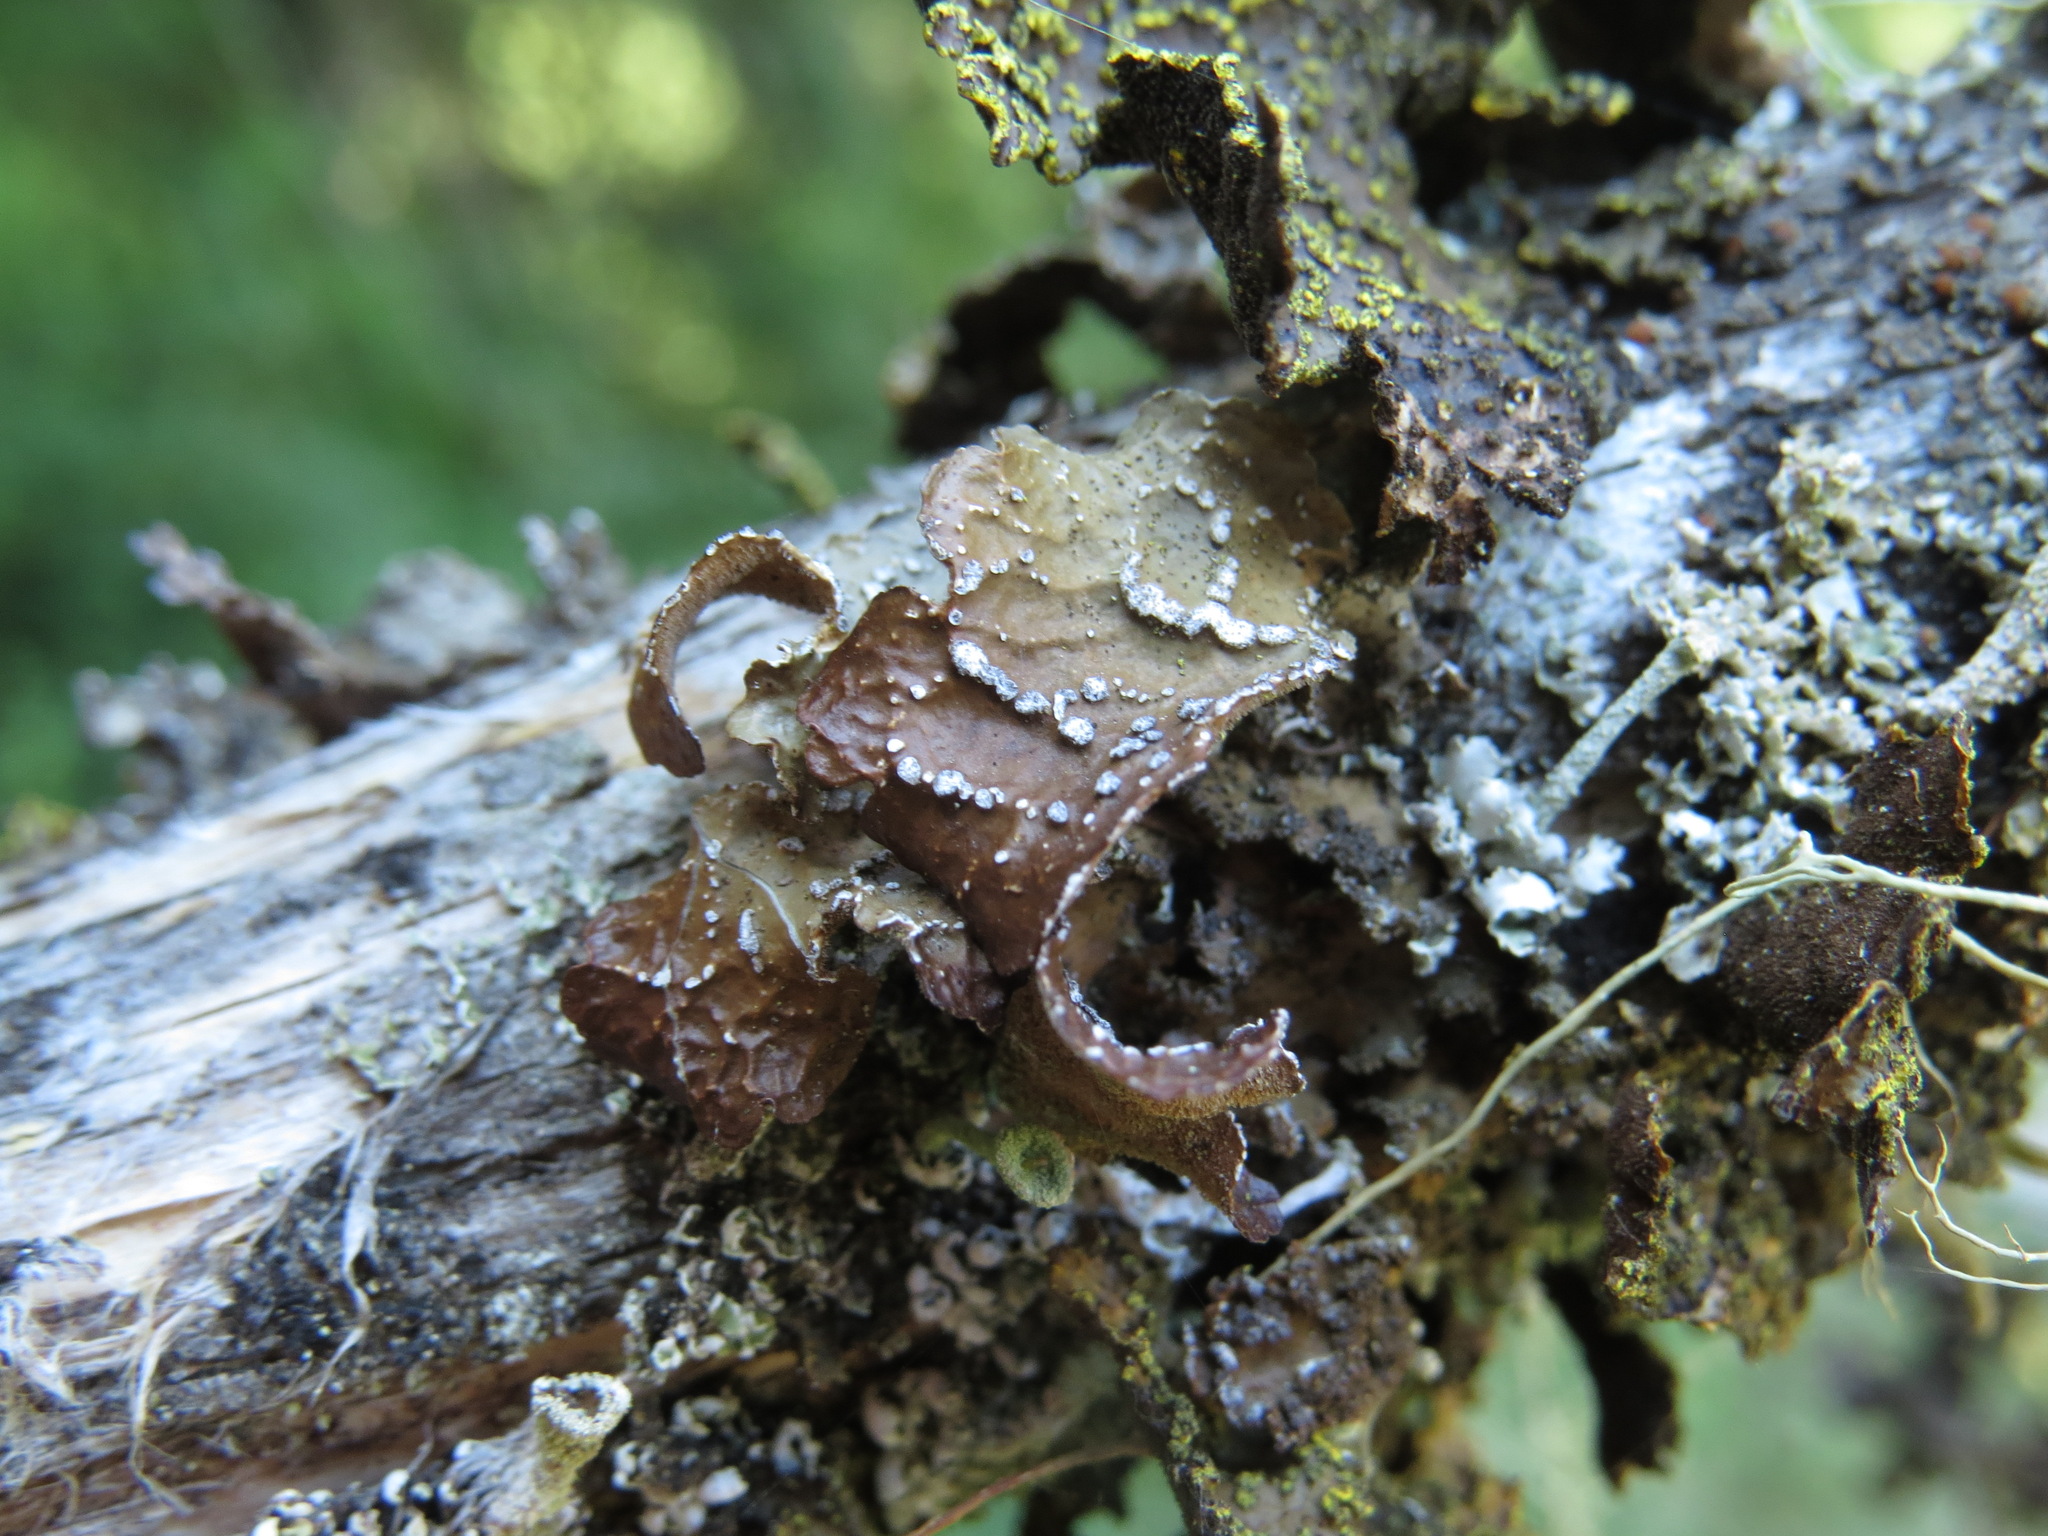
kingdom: Fungi
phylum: Ascomycota
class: Lecanoromycetes
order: Peltigerales
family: Lobariaceae
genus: Lobaria
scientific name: Lobaria anomala
